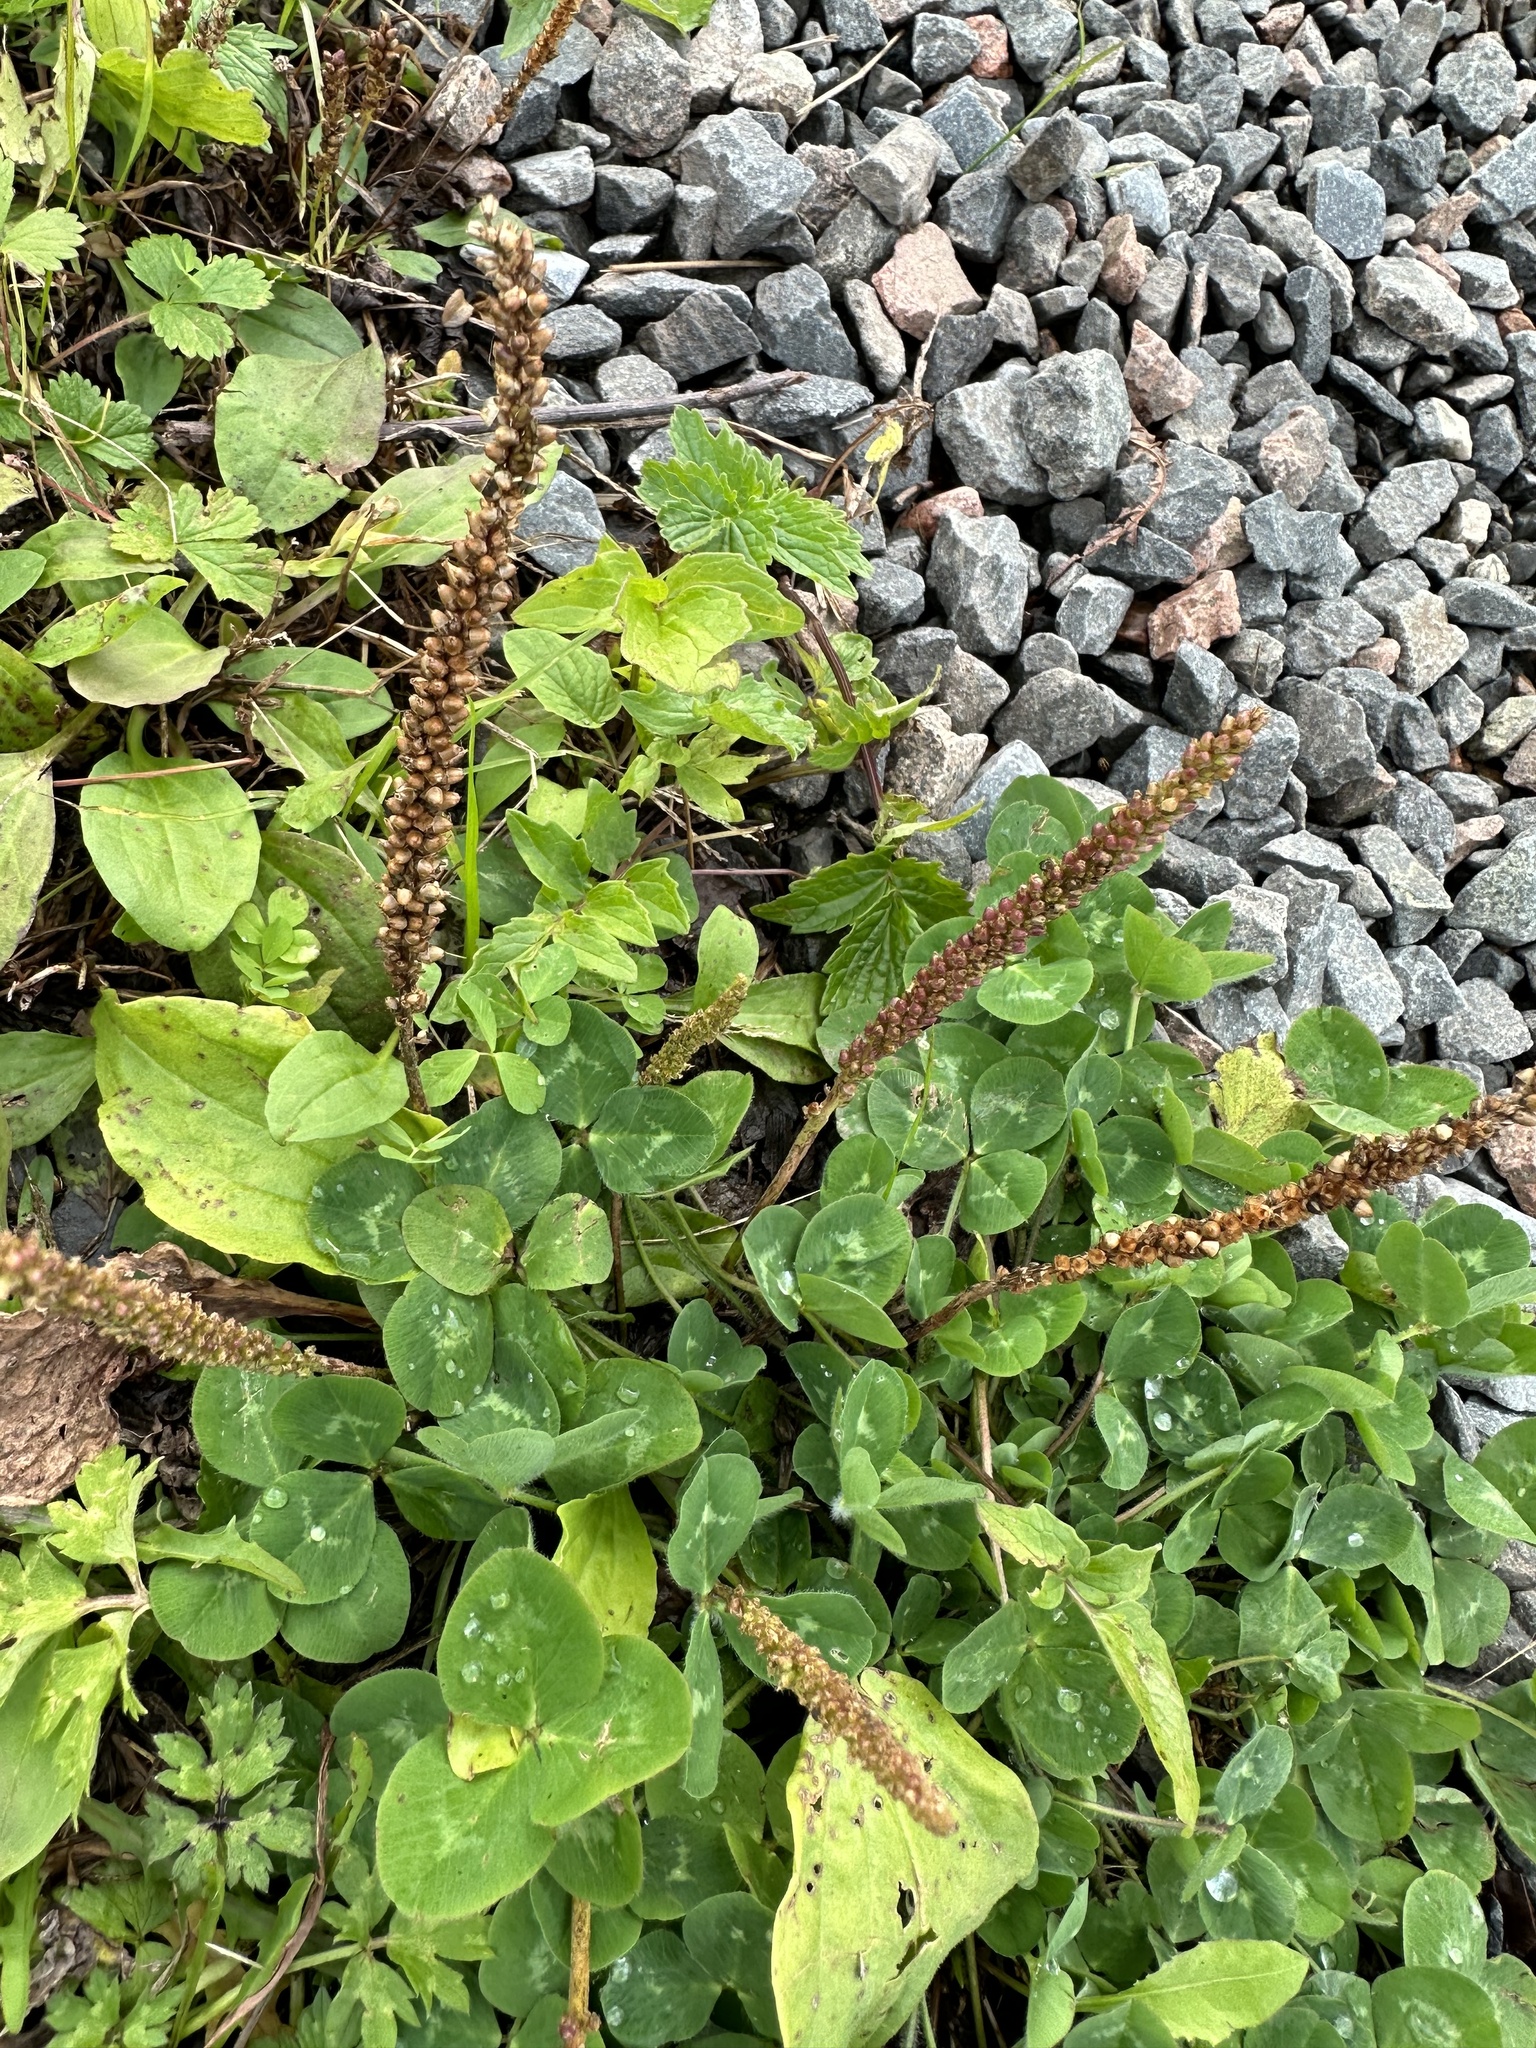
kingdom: Plantae
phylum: Tracheophyta
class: Magnoliopsida
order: Lamiales
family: Plantaginaceae
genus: Plantago
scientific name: Plantago major
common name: Common plantain
